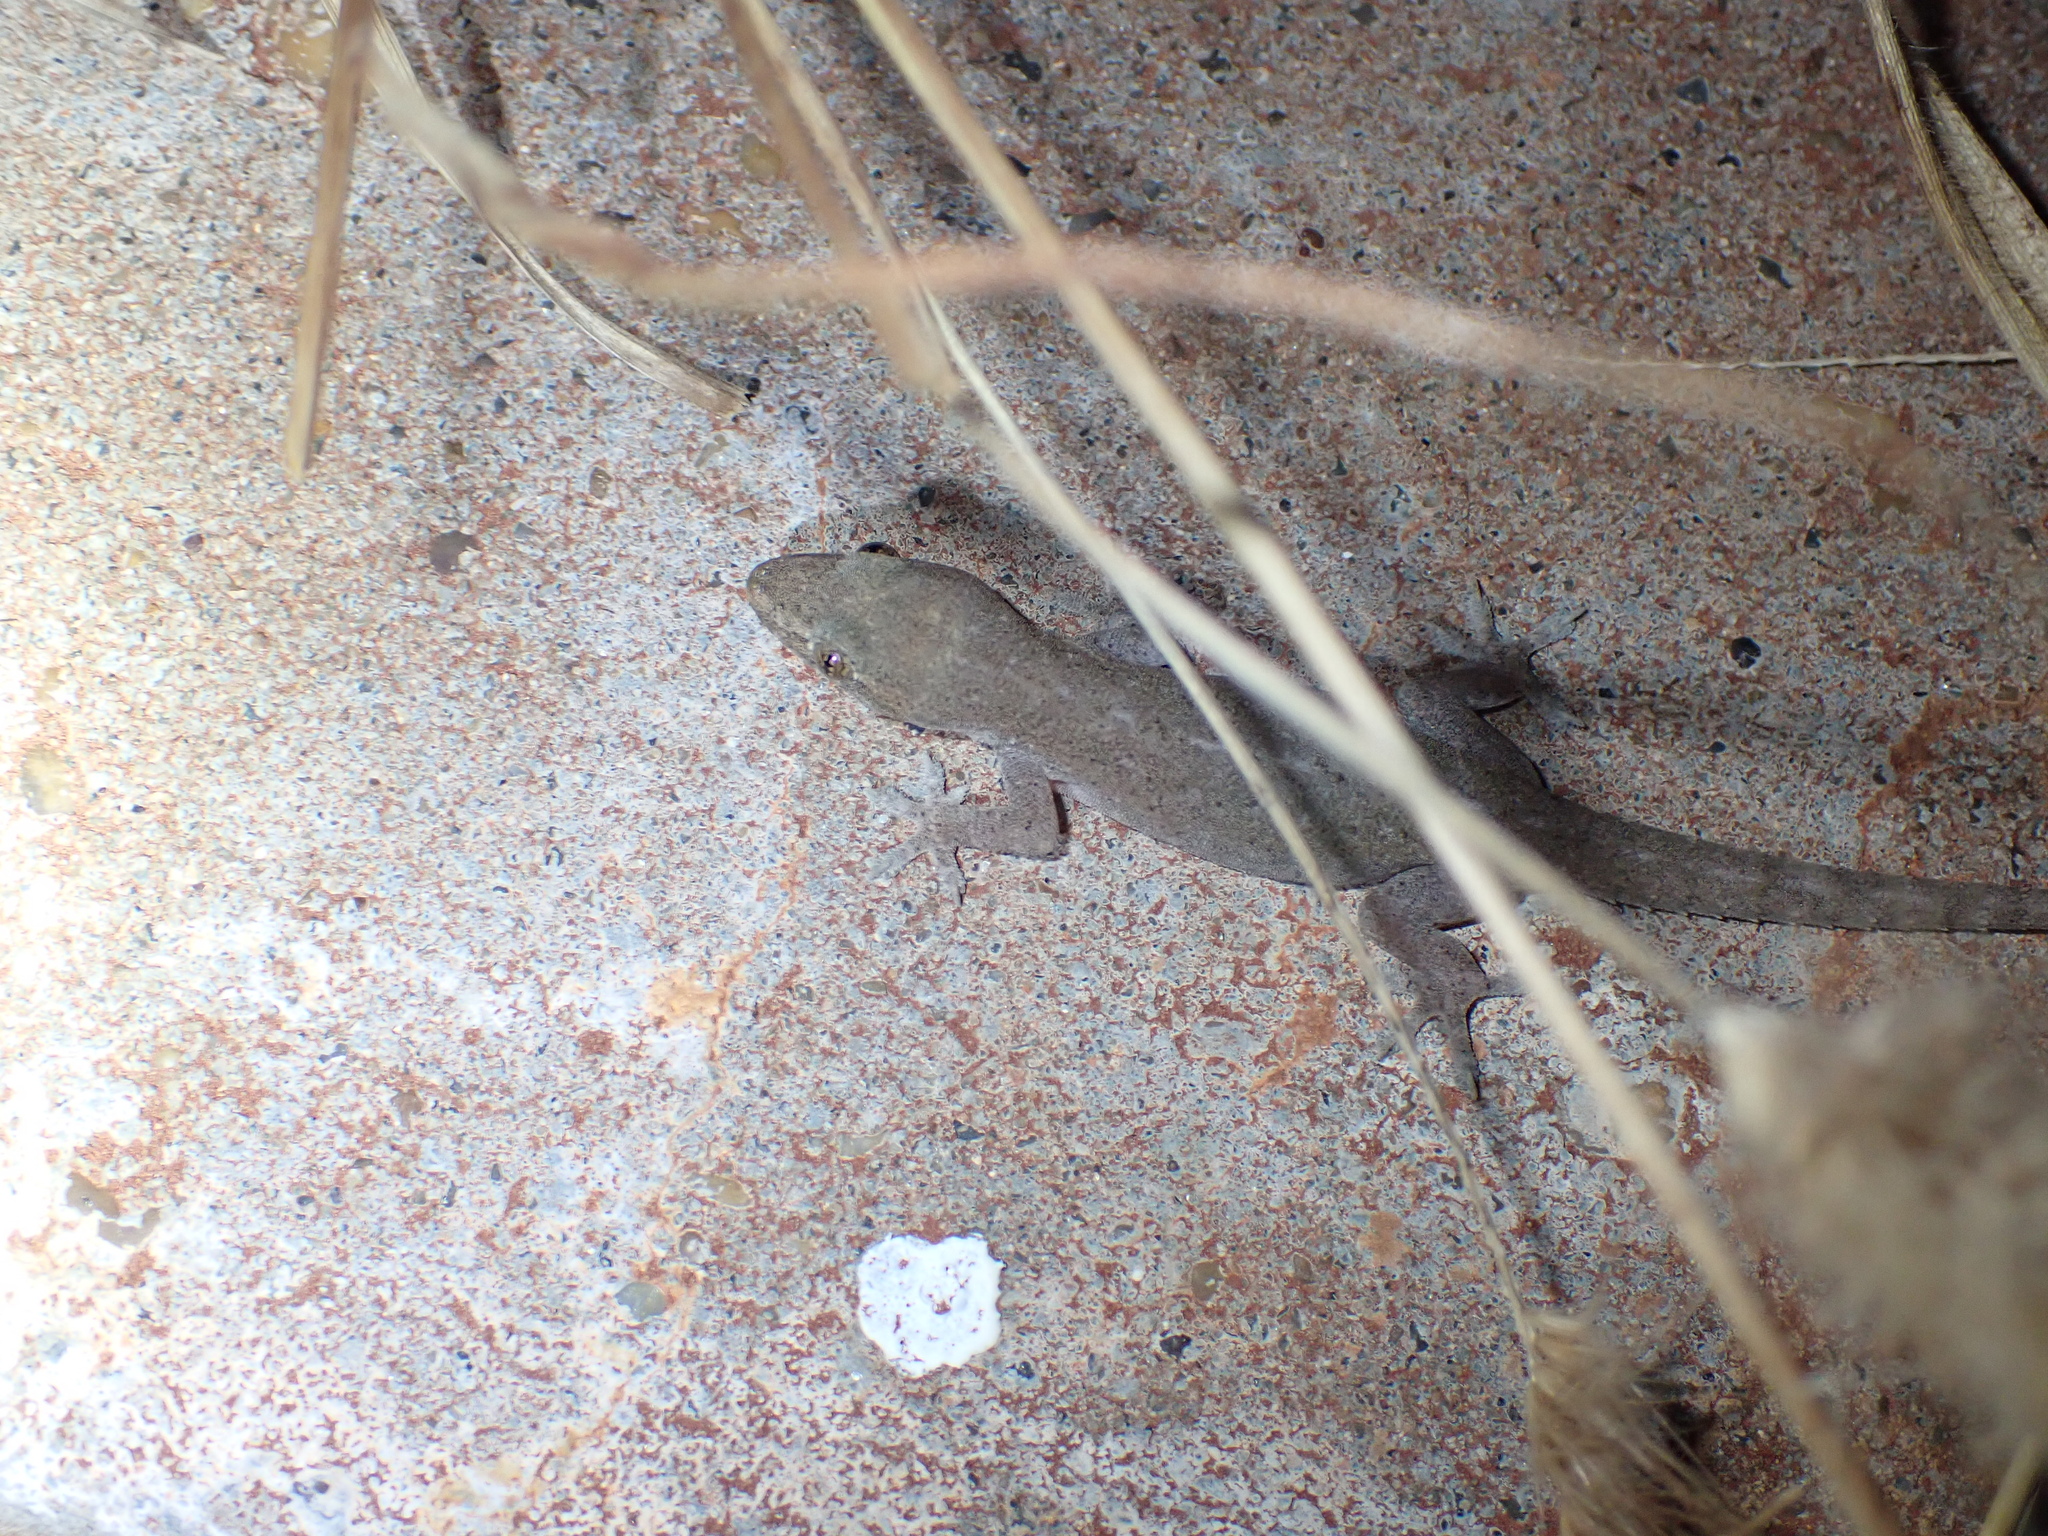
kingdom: Animalia
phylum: Chordata
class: Squamata
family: Gekkonidae
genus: Hemidactylus
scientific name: Hemidactylus frenatus
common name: Common house gecko
